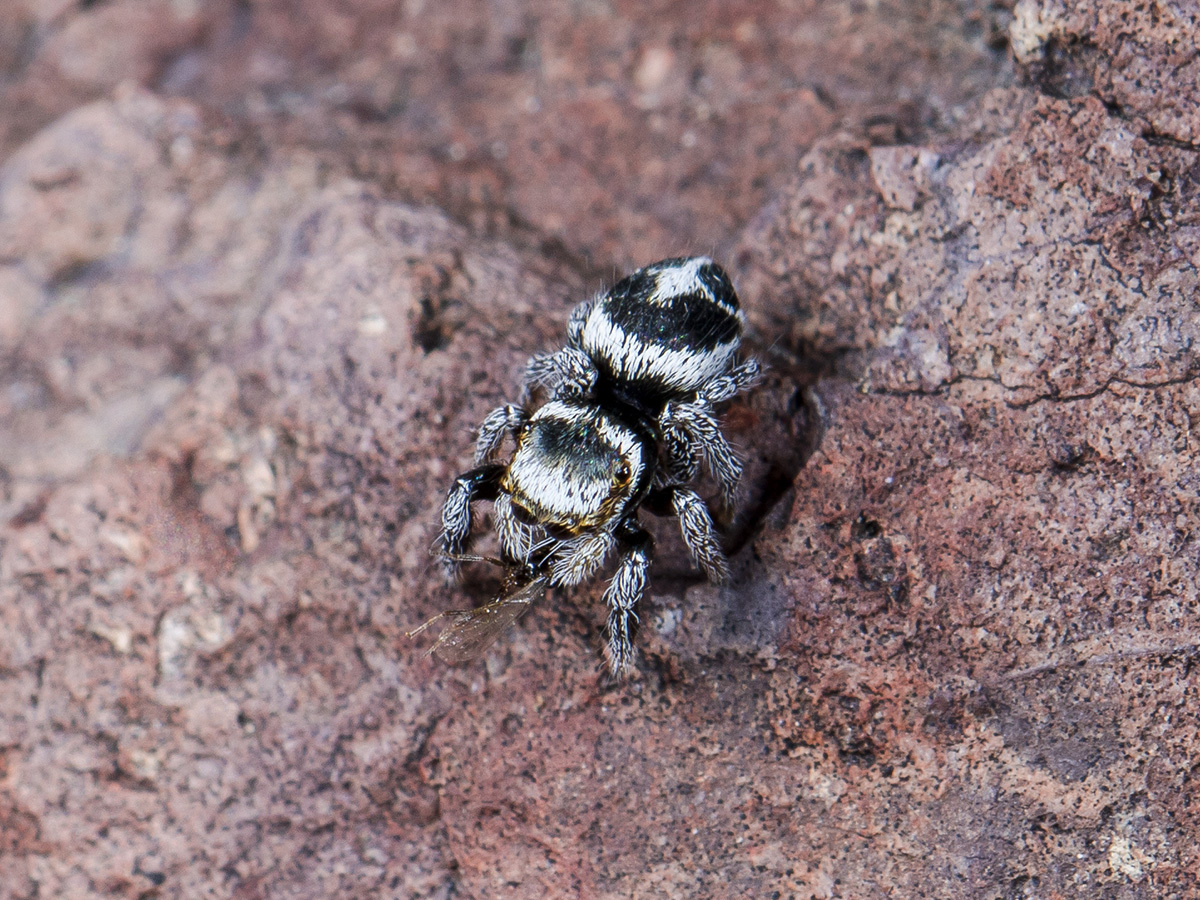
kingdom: Animalia
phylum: Arthropoda
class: Arachnida
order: Araneae
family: Salticidae
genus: Pellenes
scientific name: Pellenes geniculatus
